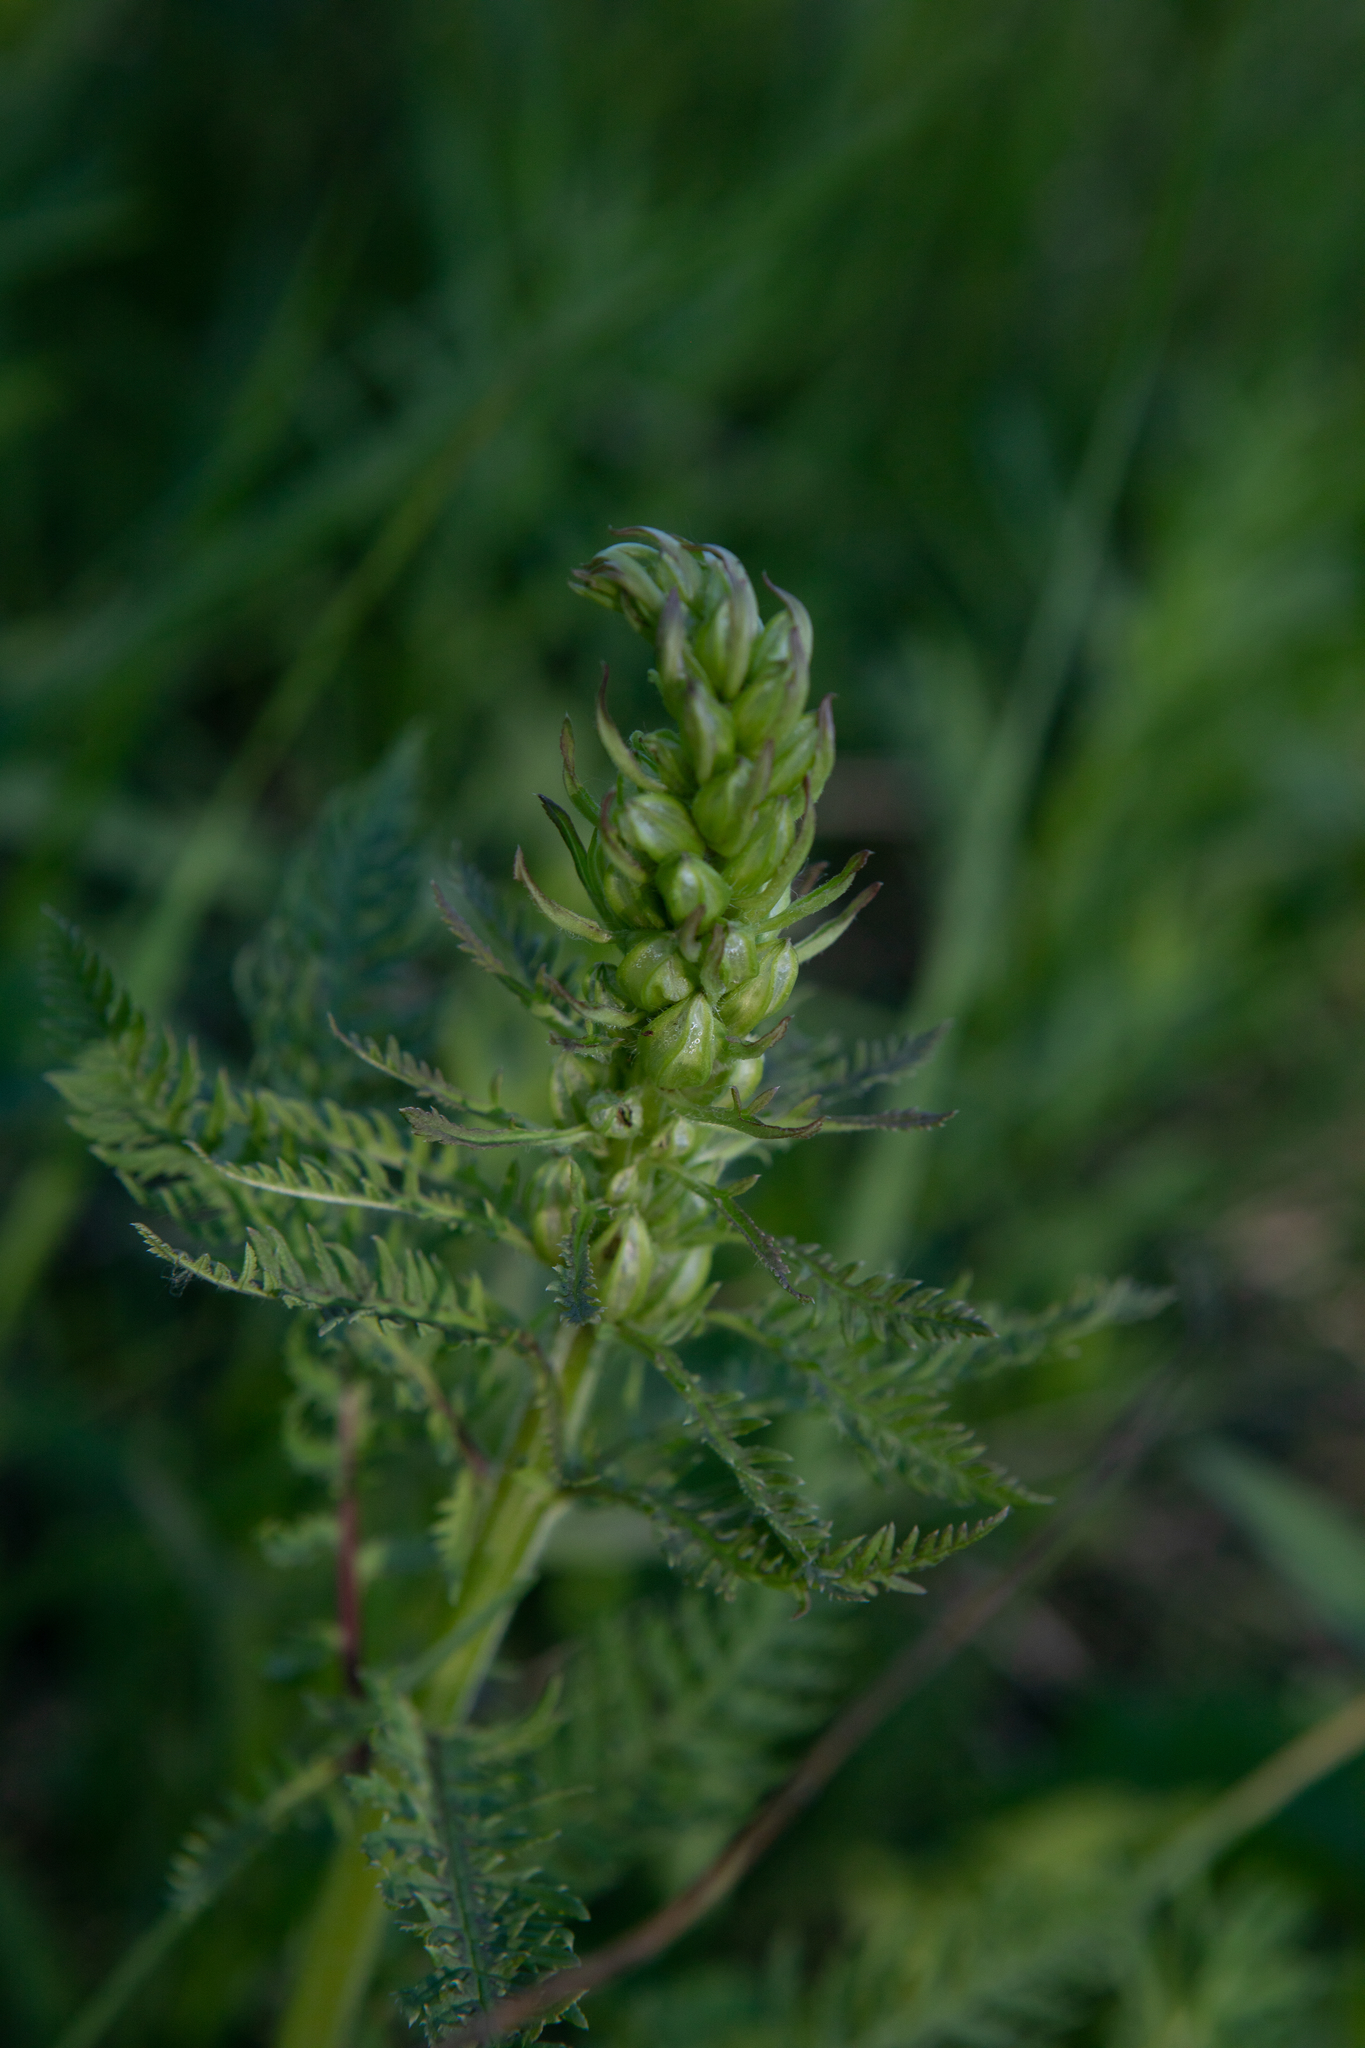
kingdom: Plantae
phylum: Tracheophyta
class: Magnoliopsida
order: Lamiales
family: Orobanchaceae
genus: Pedicularis
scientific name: Pedicularis sibirica
